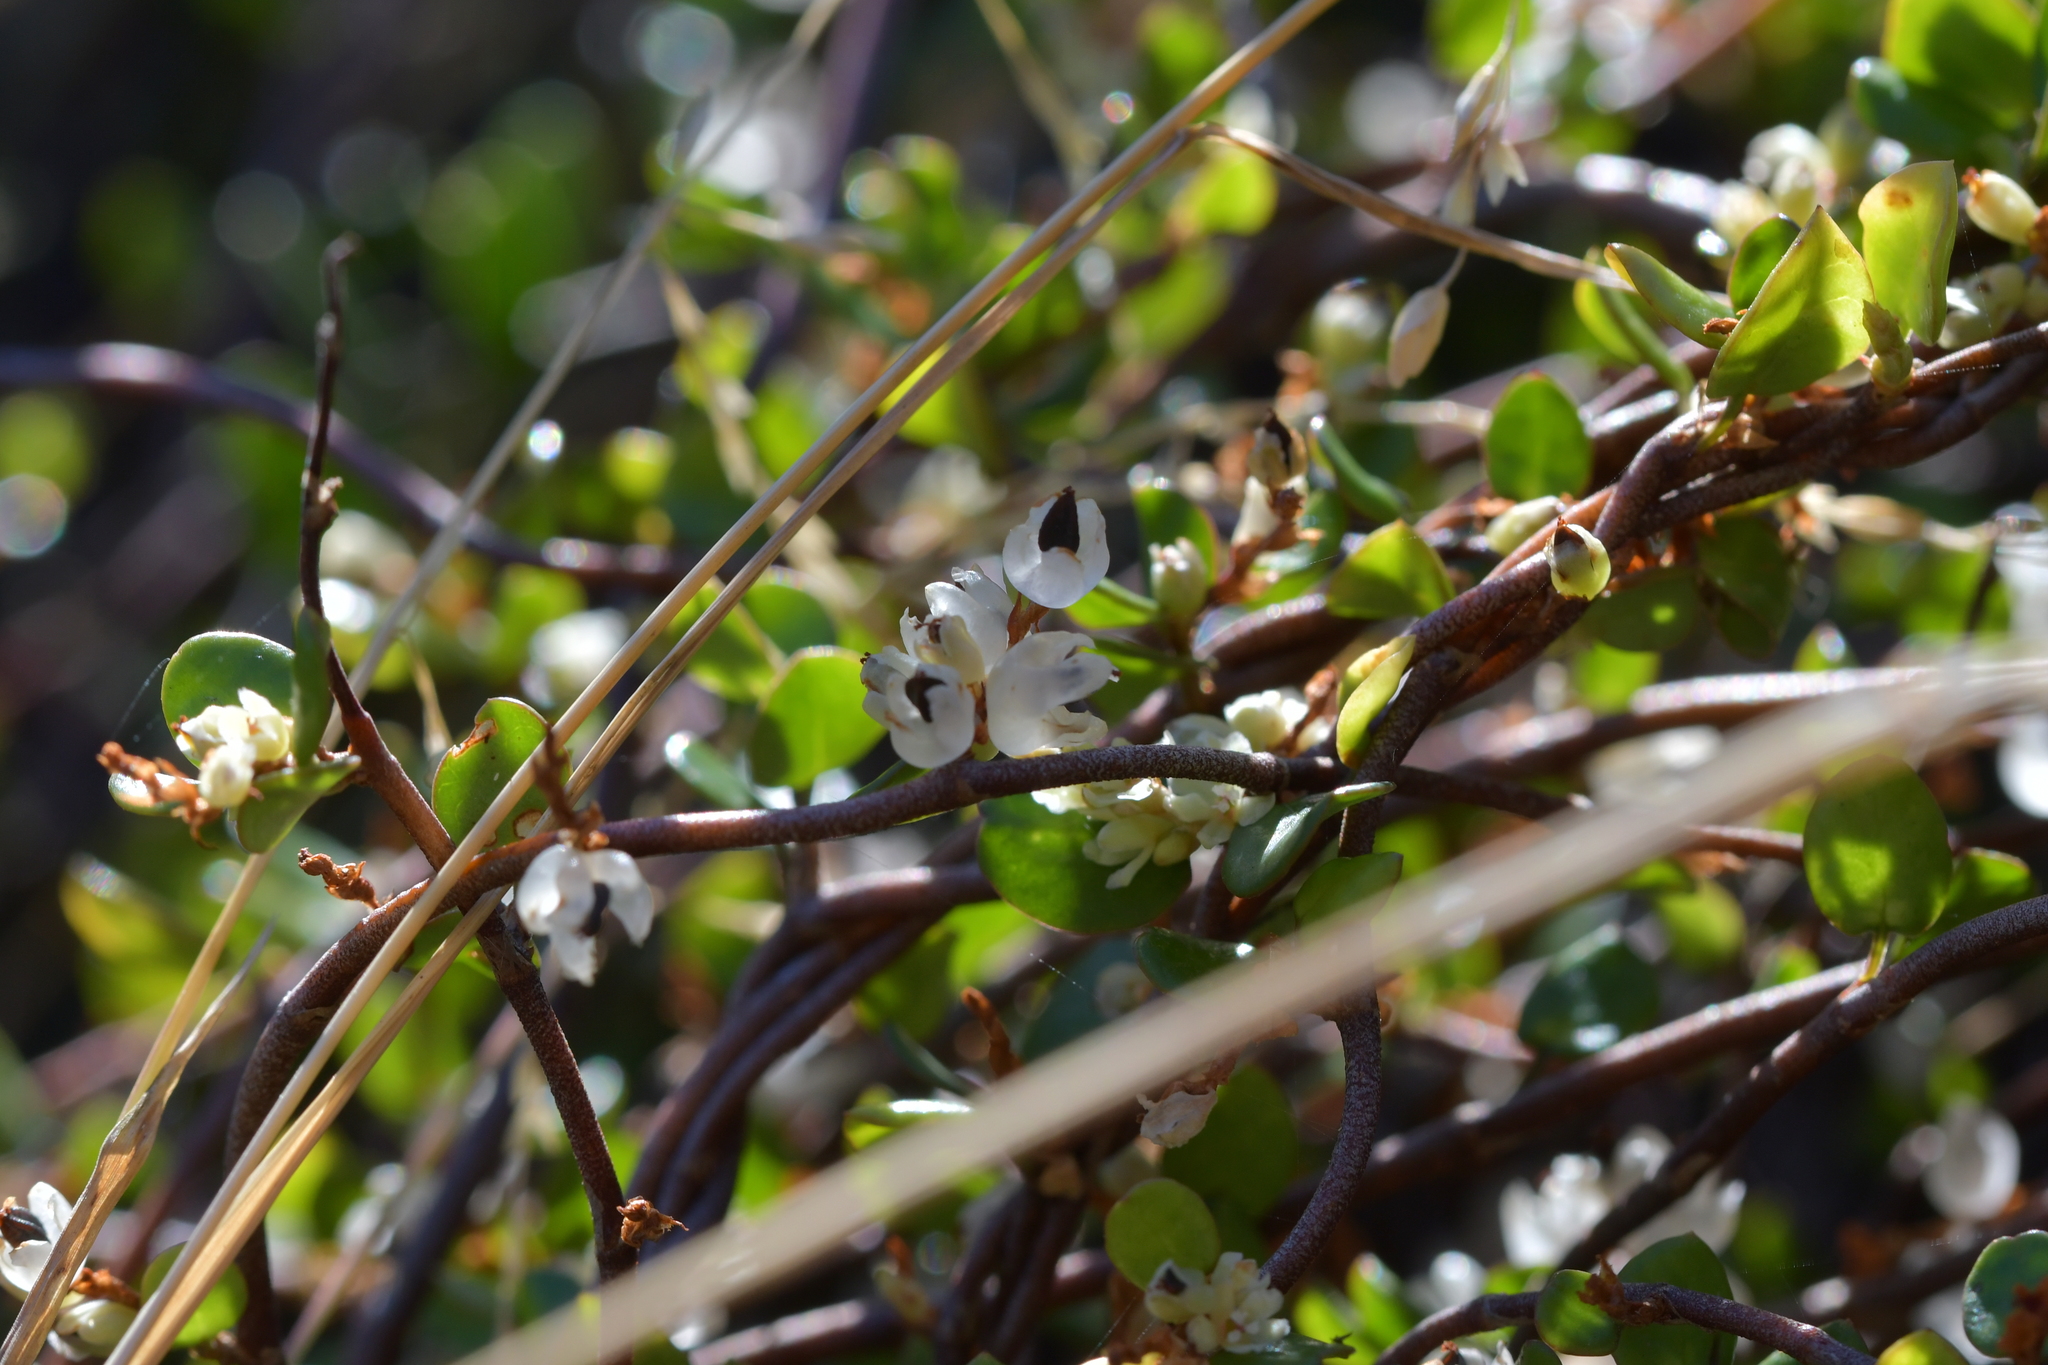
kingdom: Plantae
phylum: Tracheophyta
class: Magnoliopsida
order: Caryophyllales
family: Polygonaceae
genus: Muehlenbeckia
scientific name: Muehlenbeckia complexa
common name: Wireplant
